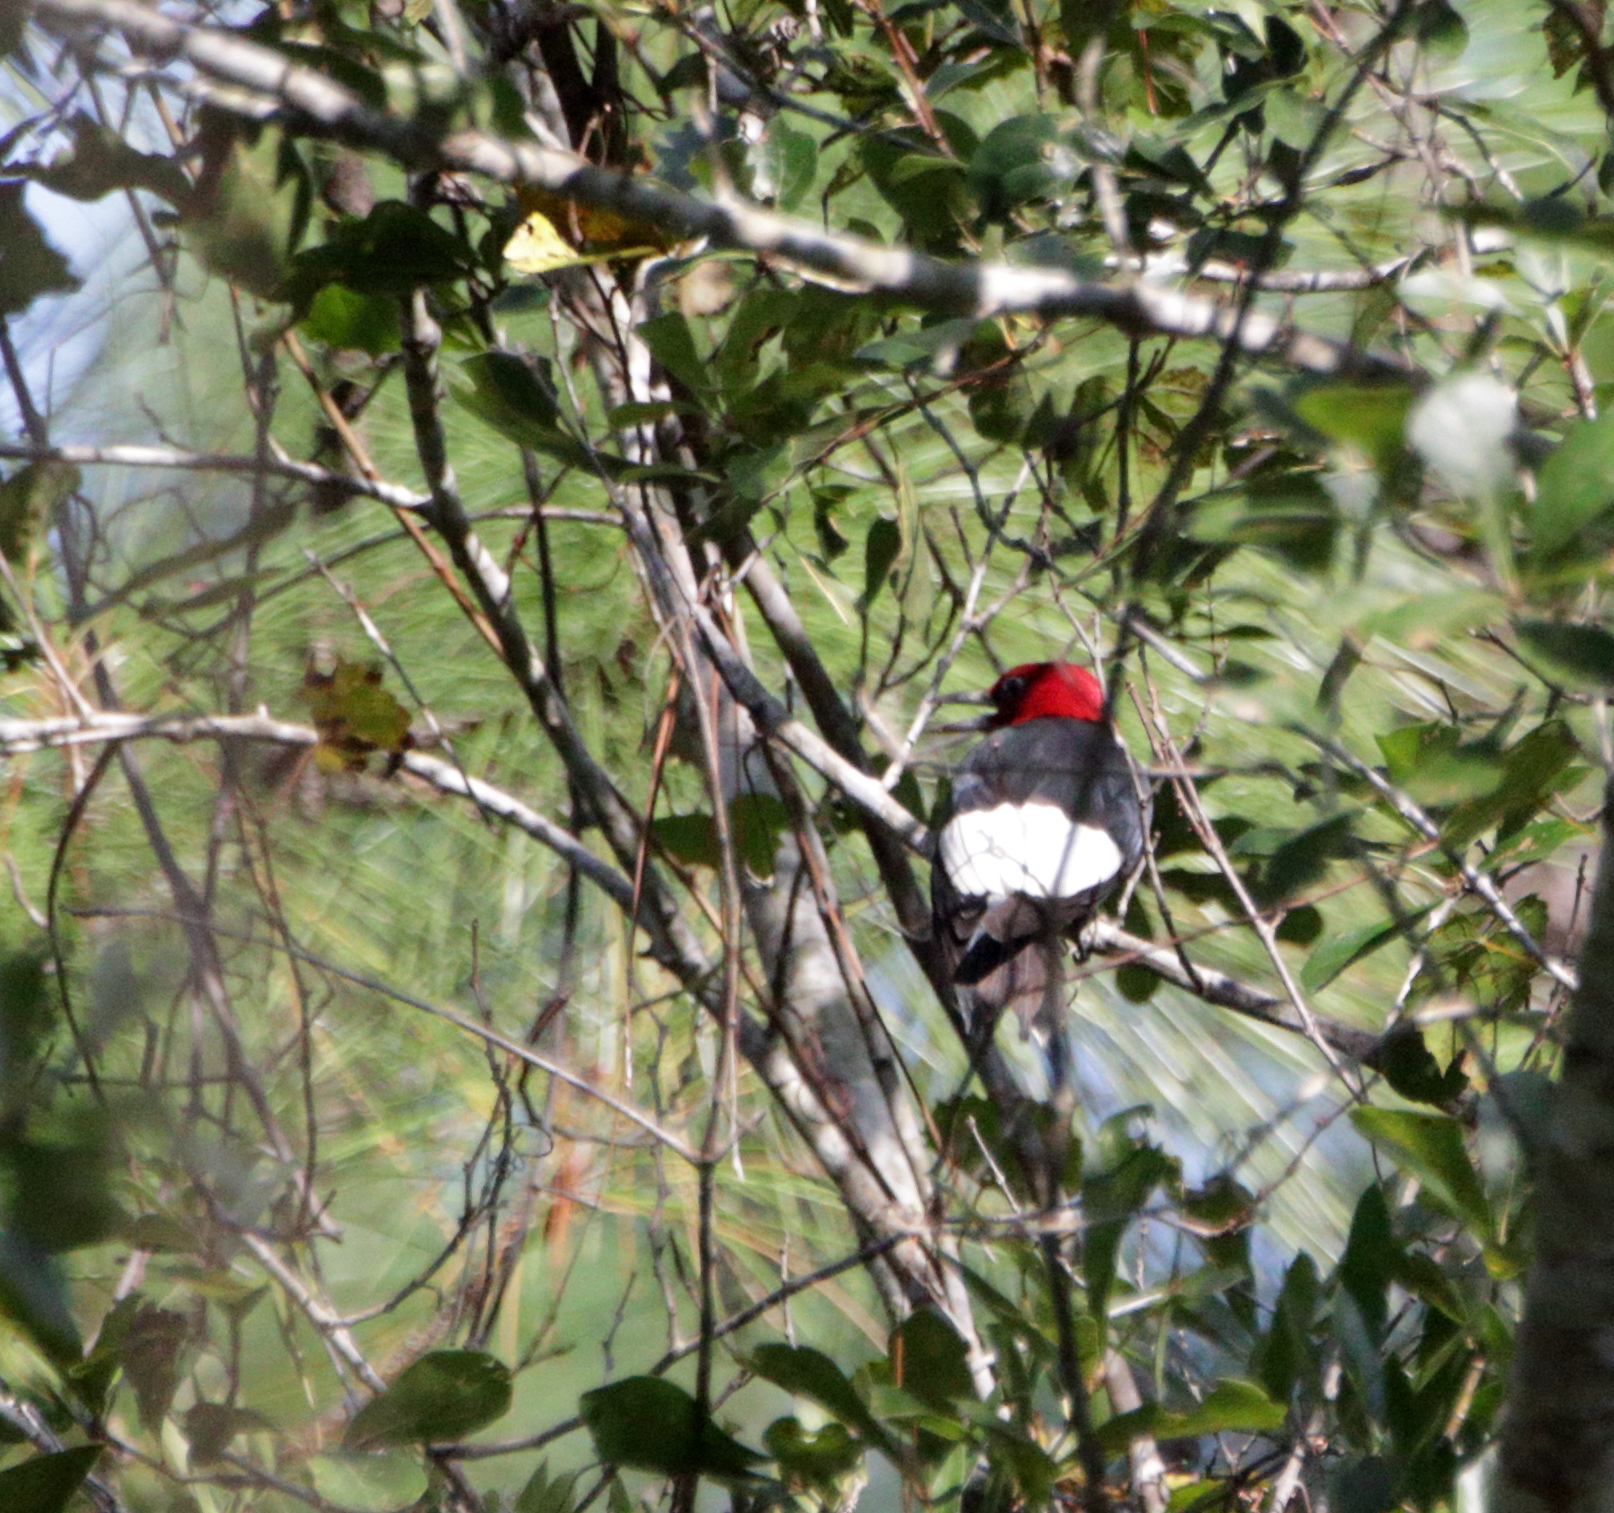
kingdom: Animalia
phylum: Chordata
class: Aves
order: Piciformes
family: Picidae
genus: Melanerpes
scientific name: Melanerpes erythrocephalus
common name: Red-headed woodpecker
